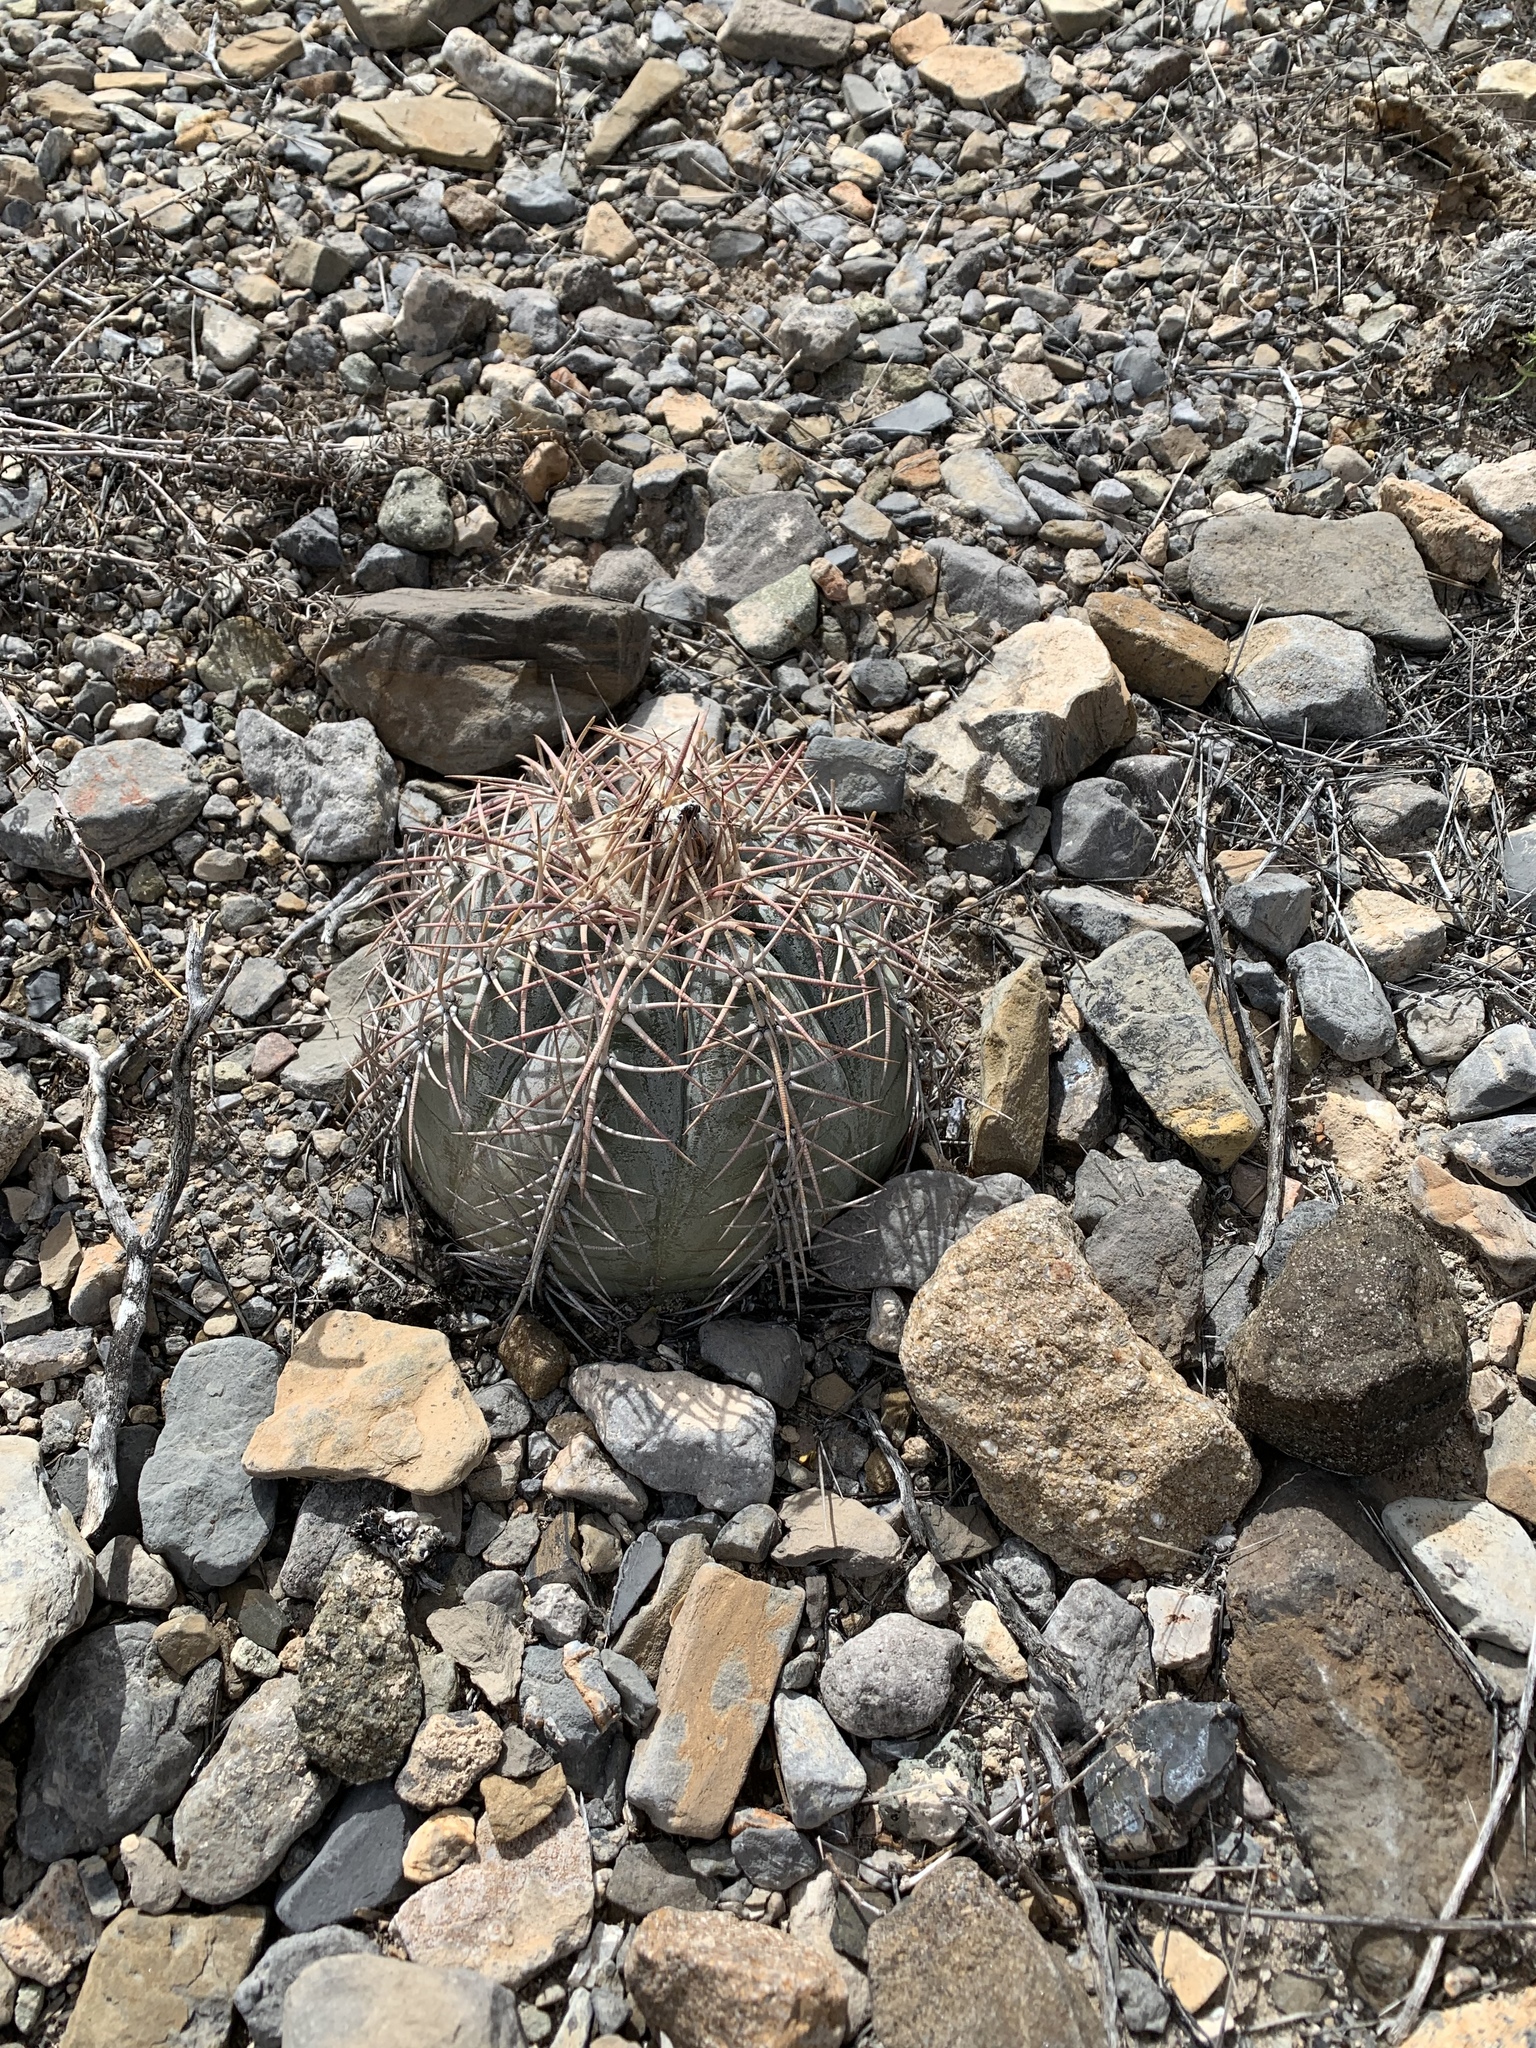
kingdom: Plantae
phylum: Tracheophyta
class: Magnoliopsida
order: Caryophyllales
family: Cactaceae
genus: Echinocactus
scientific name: Echinocactus horizonthalonius
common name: Devilshead
